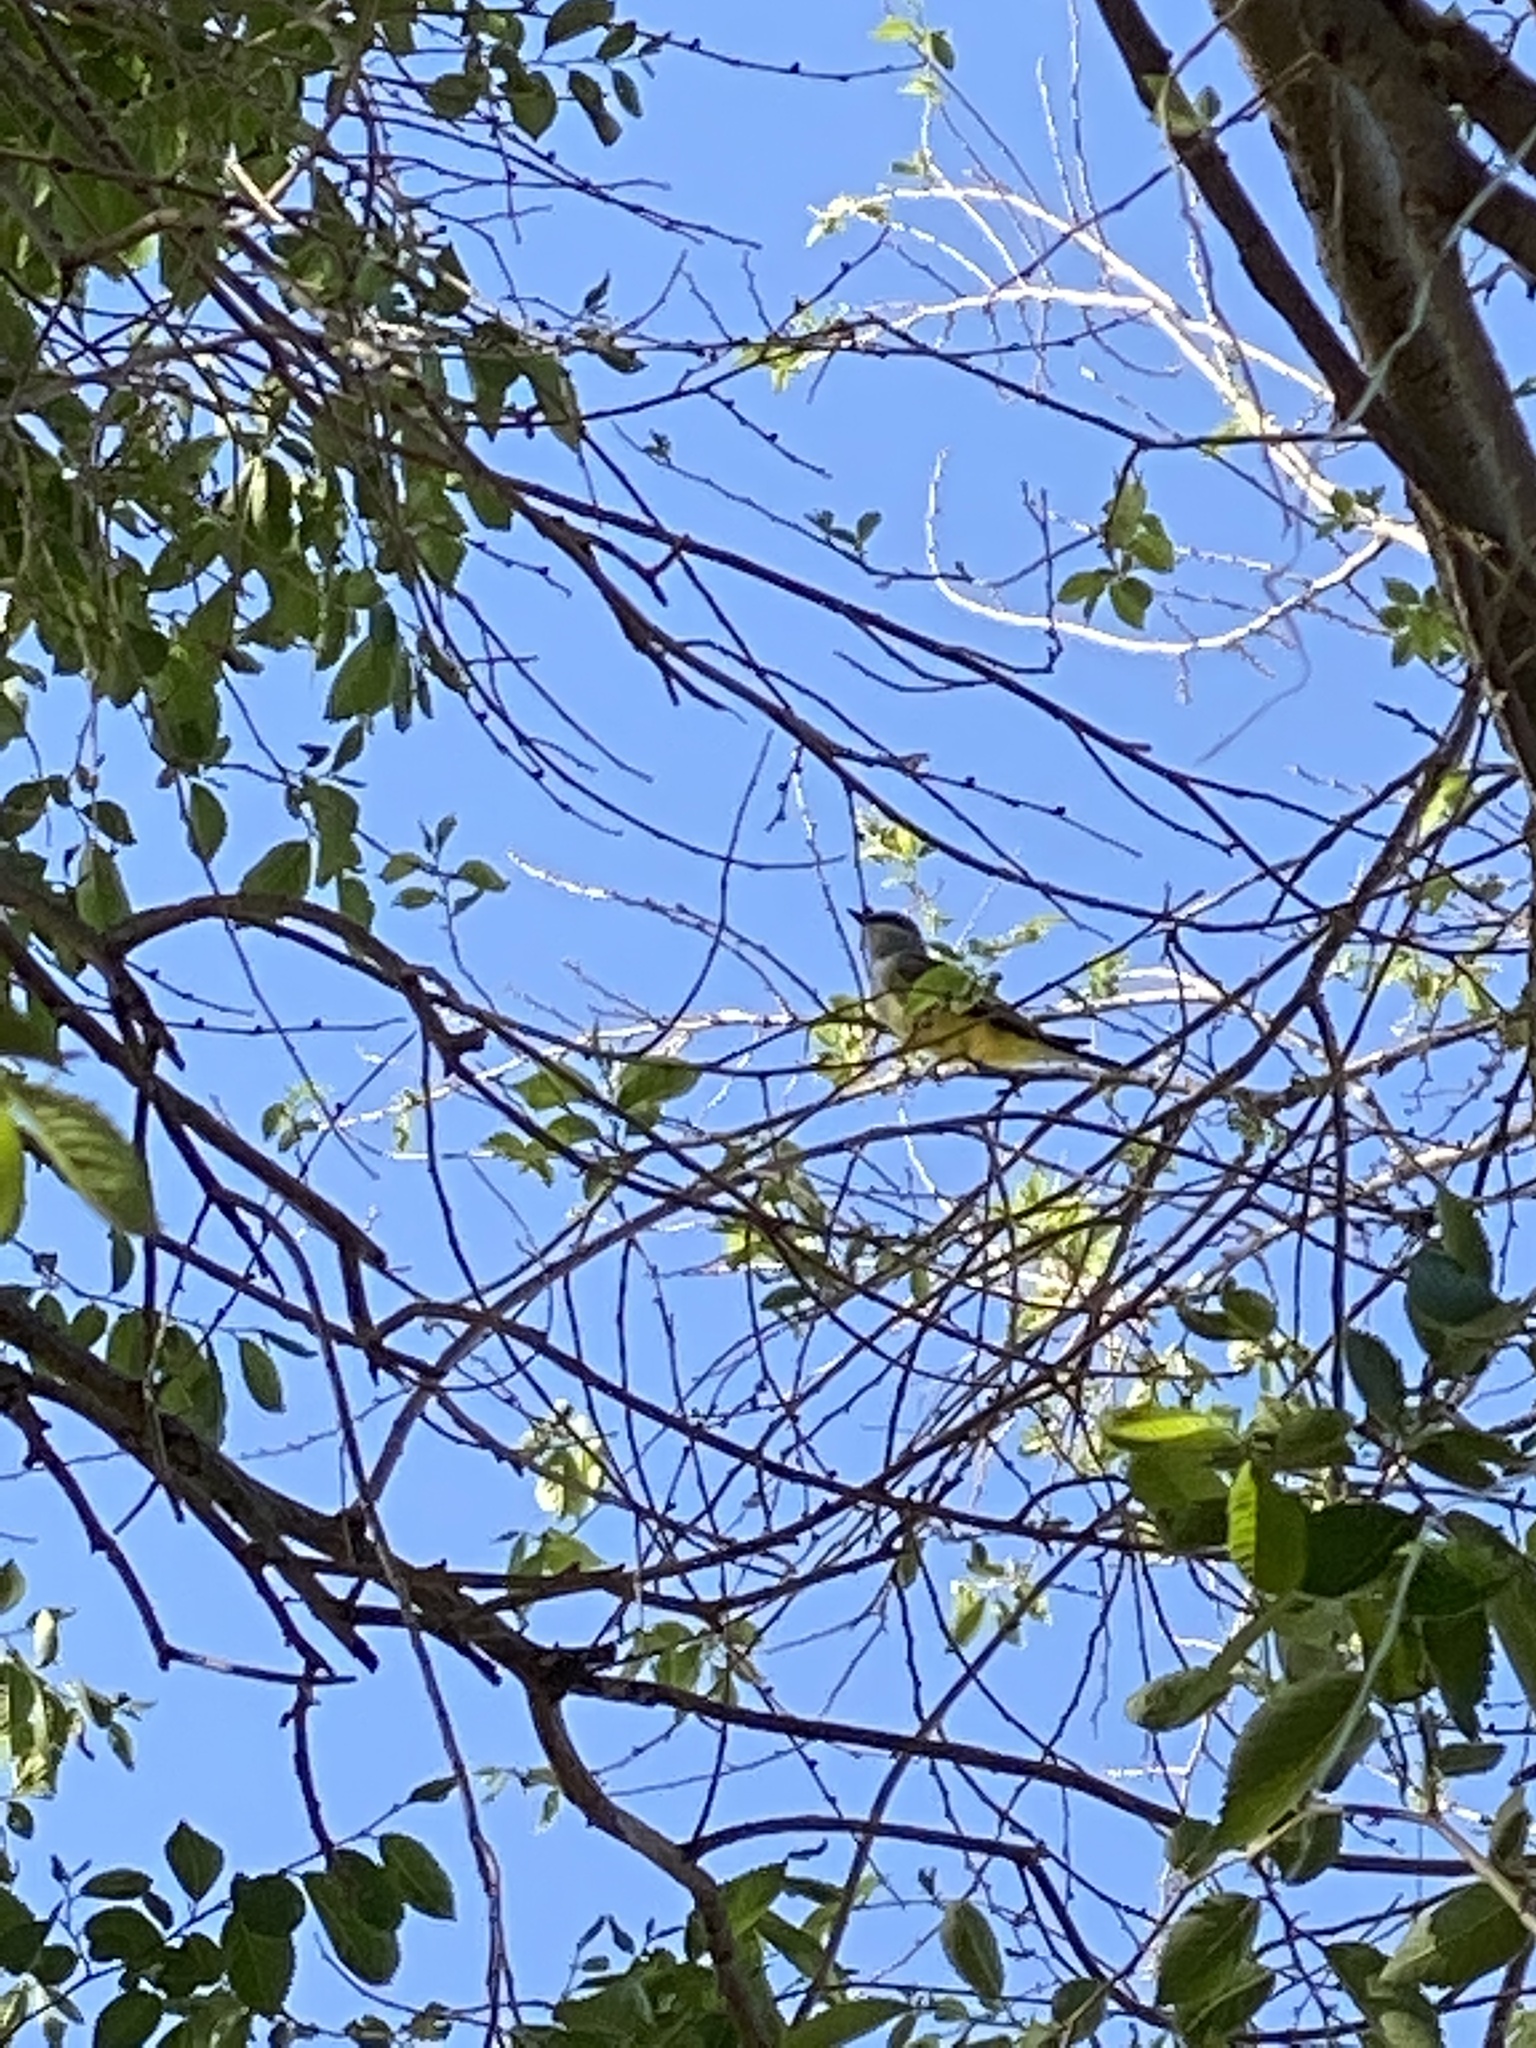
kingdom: Animalia
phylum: Chordata
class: Aves
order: Passeriformes
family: Tyrannidae
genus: Tyrannus
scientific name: Tyrannus verticalis
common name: Western kingbird
